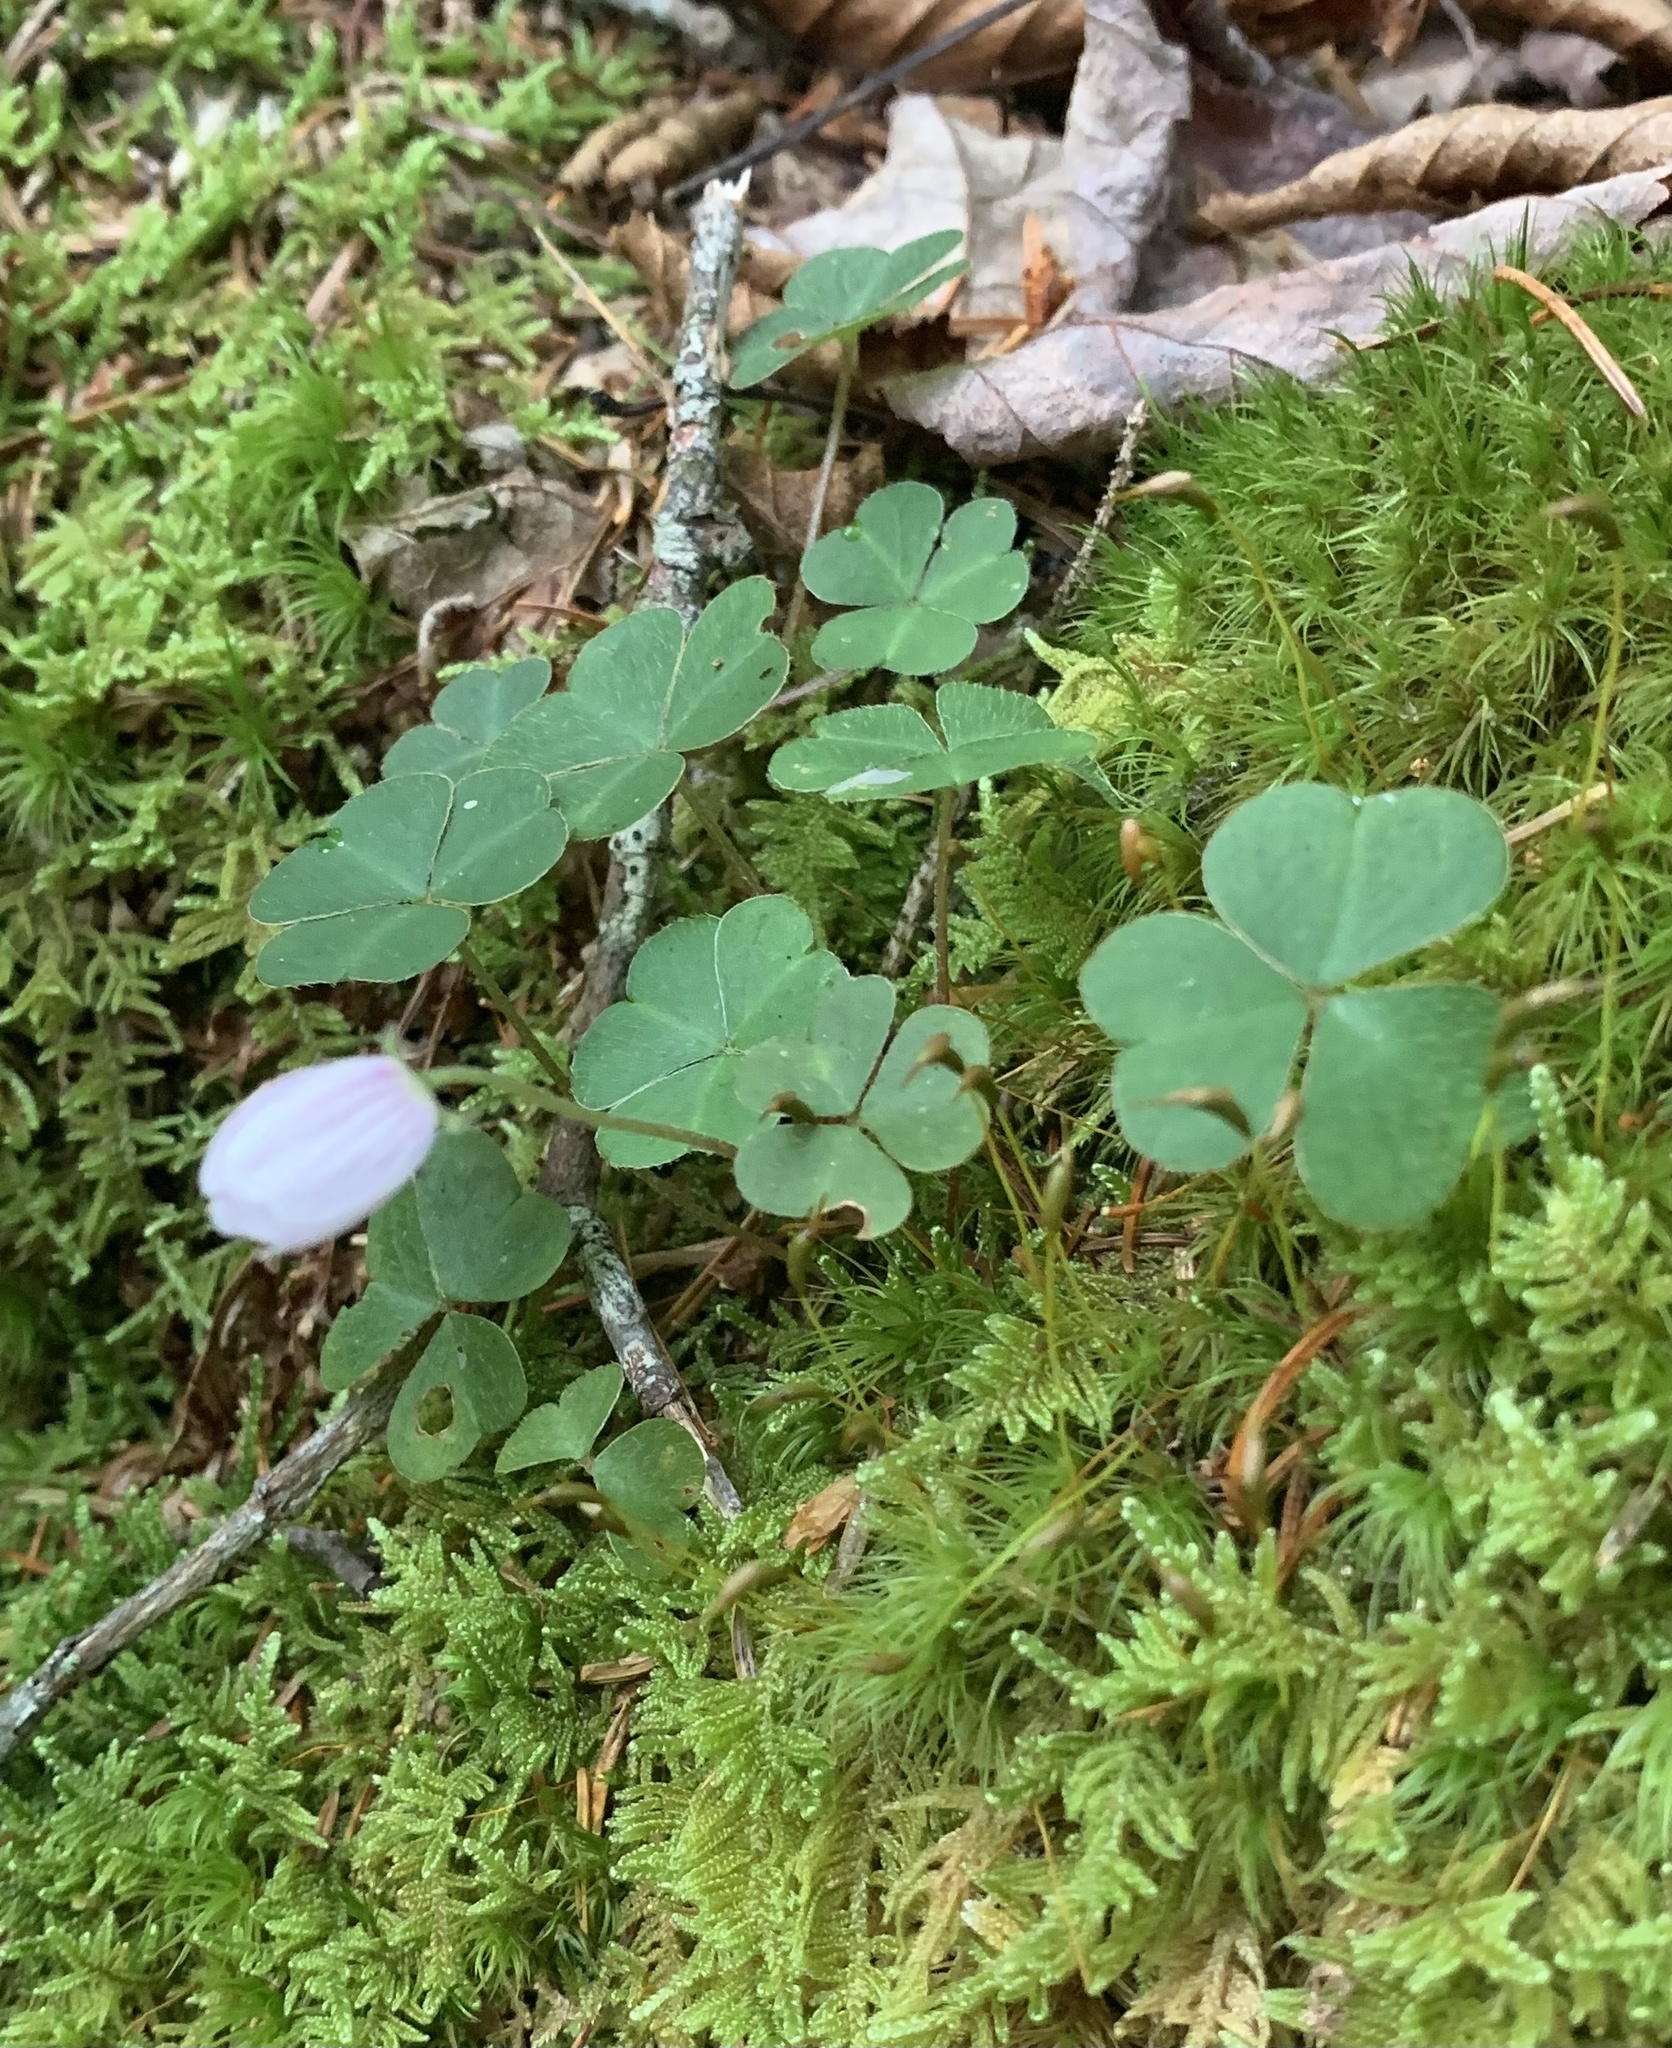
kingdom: Plantae
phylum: Tracheophyta
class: Magnoliopsida
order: Oxalidales
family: Oxalidaceae
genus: Oxalis
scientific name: Oxalis montana
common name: American wood-sorrel
